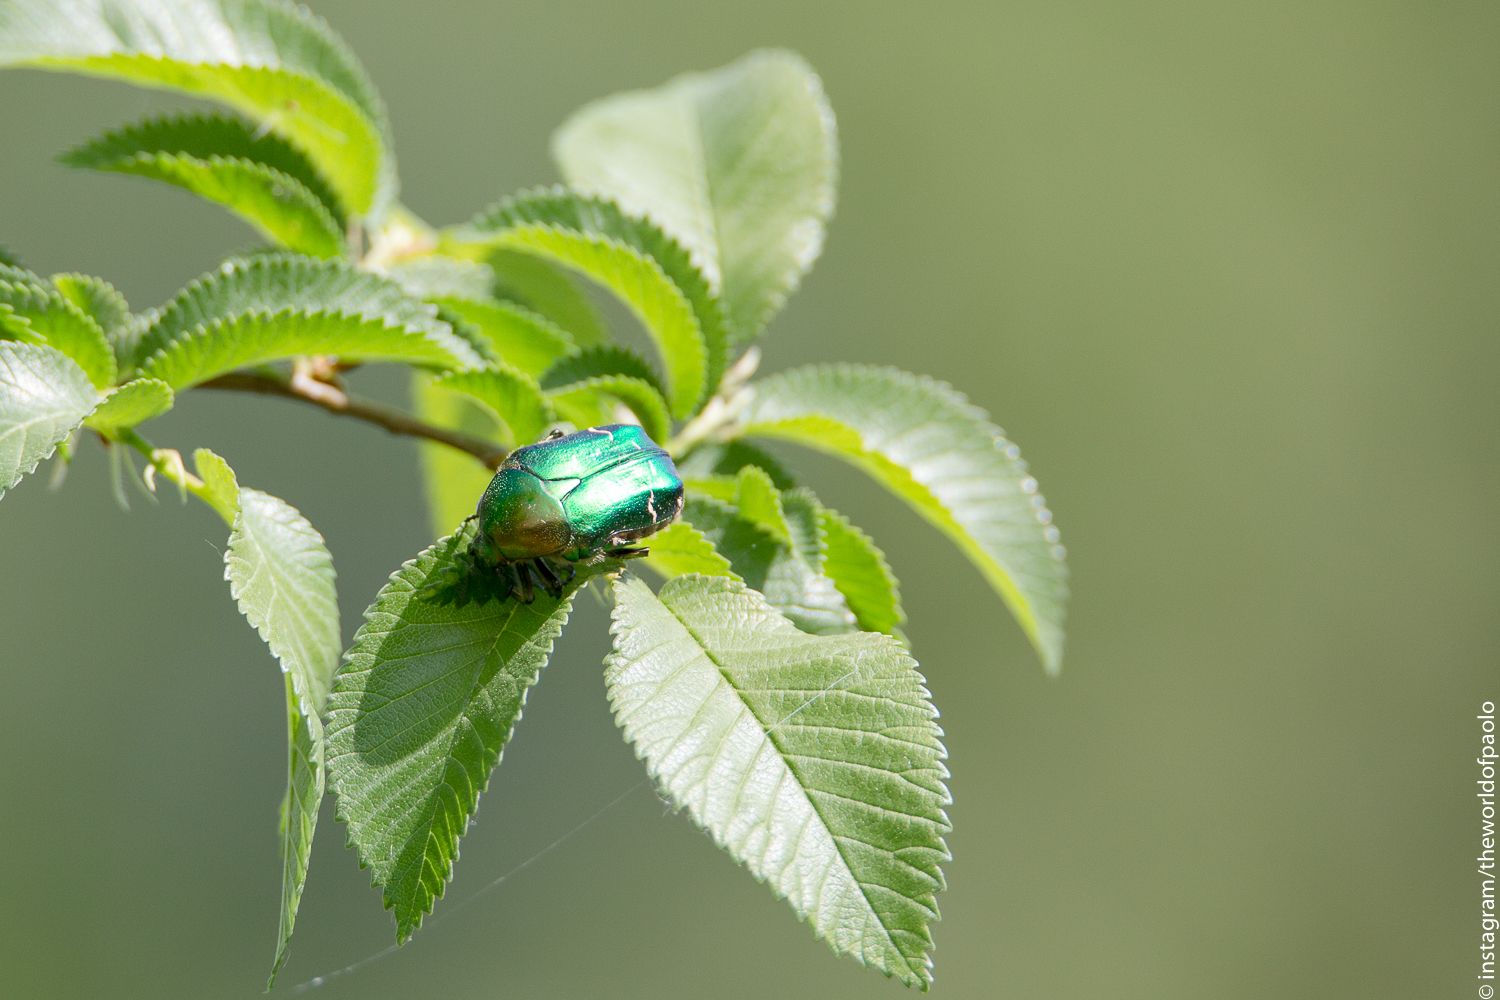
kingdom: Animalia
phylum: Arthropoda
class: Insecta
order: Coleoptera
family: Scarabaeidae
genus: Cetonia
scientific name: Cetonia aurata
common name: Rose chafer
